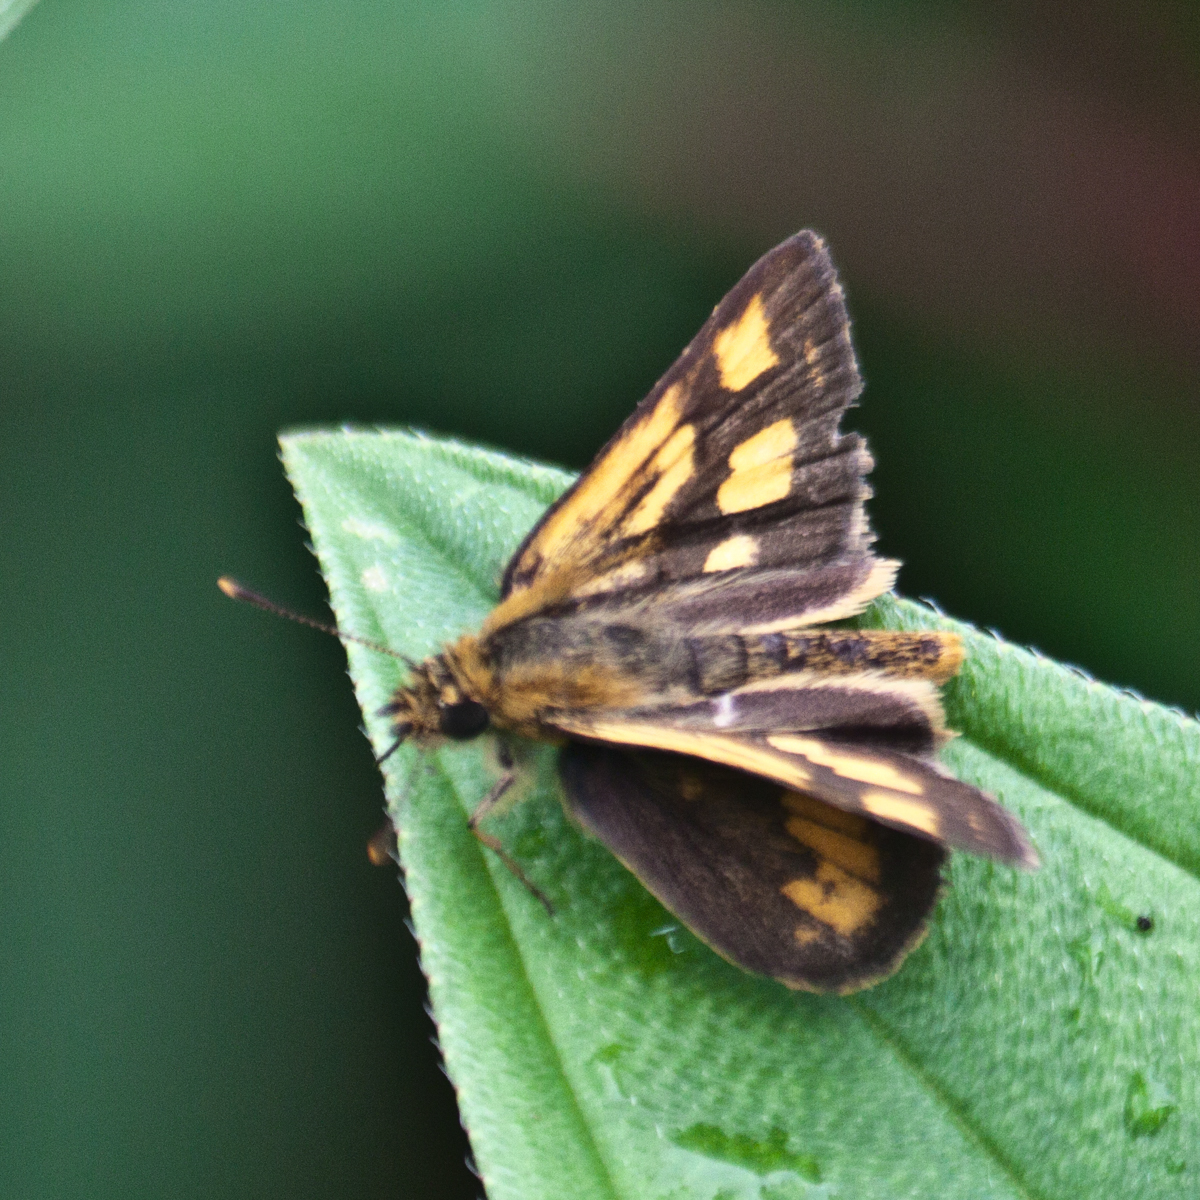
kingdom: Animalia
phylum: Arthropoda
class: Insecta
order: Lepidoptera
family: Hesperiidae
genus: Ampittia
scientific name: Ampittia dioscorides
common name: Common bush hopper
